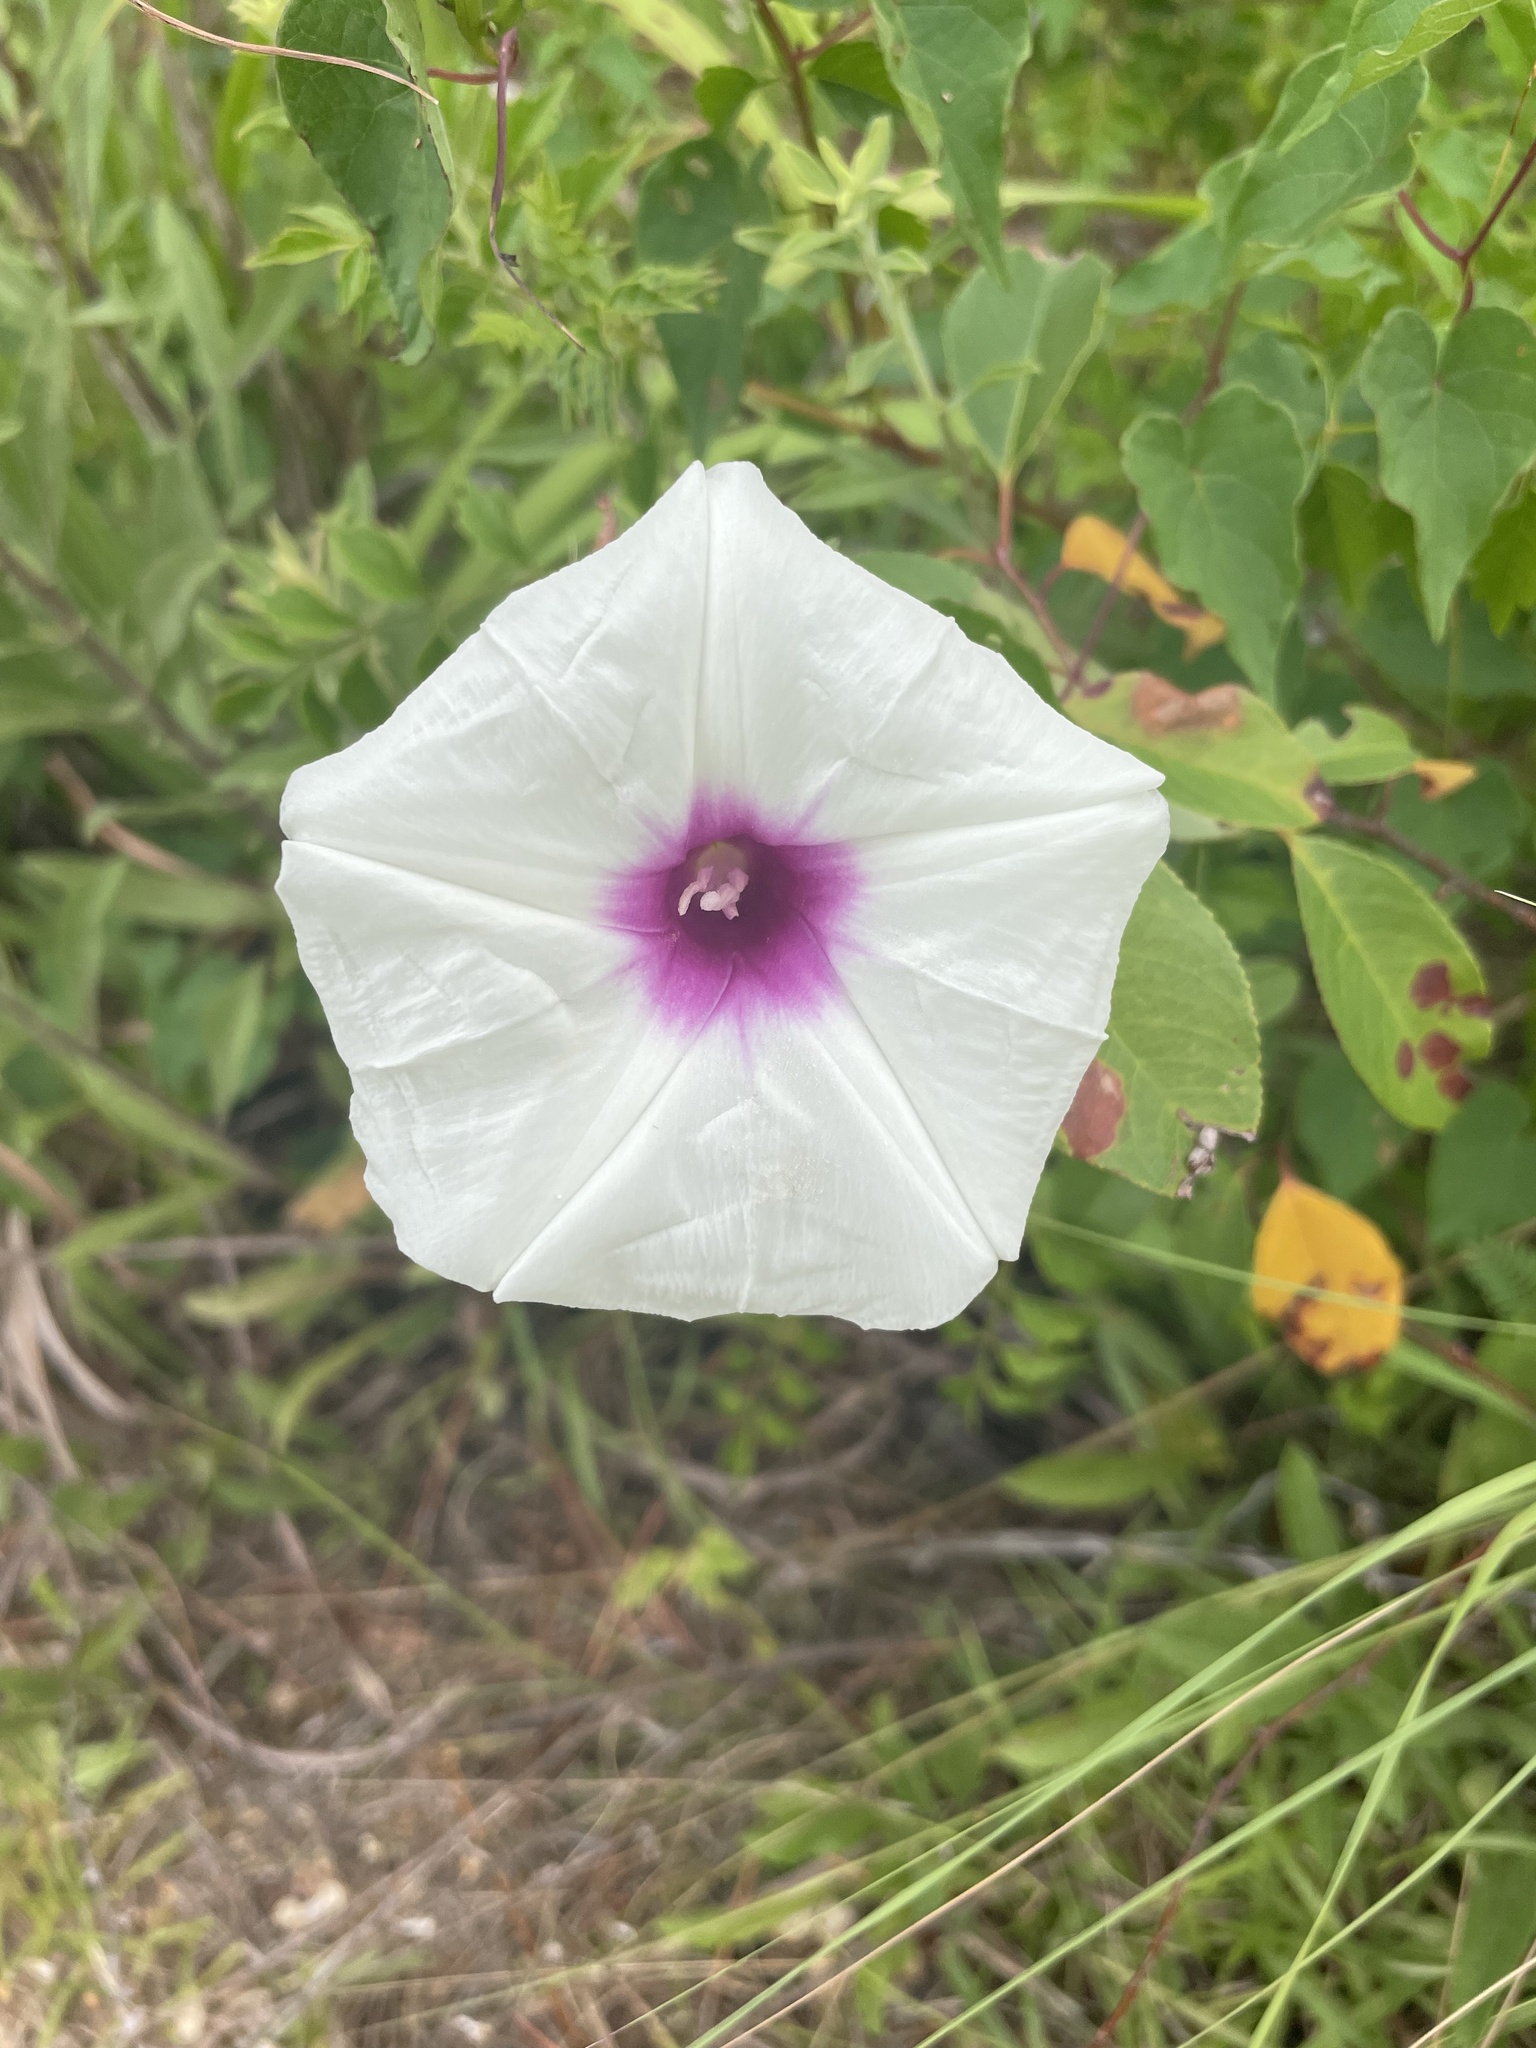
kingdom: Plantae
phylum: Tracheophyta
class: Magnoliopsida
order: Solanales
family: Convolvulaceae
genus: Ipomoea
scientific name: Ipomoea pandurata
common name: Man-of-the-earth
